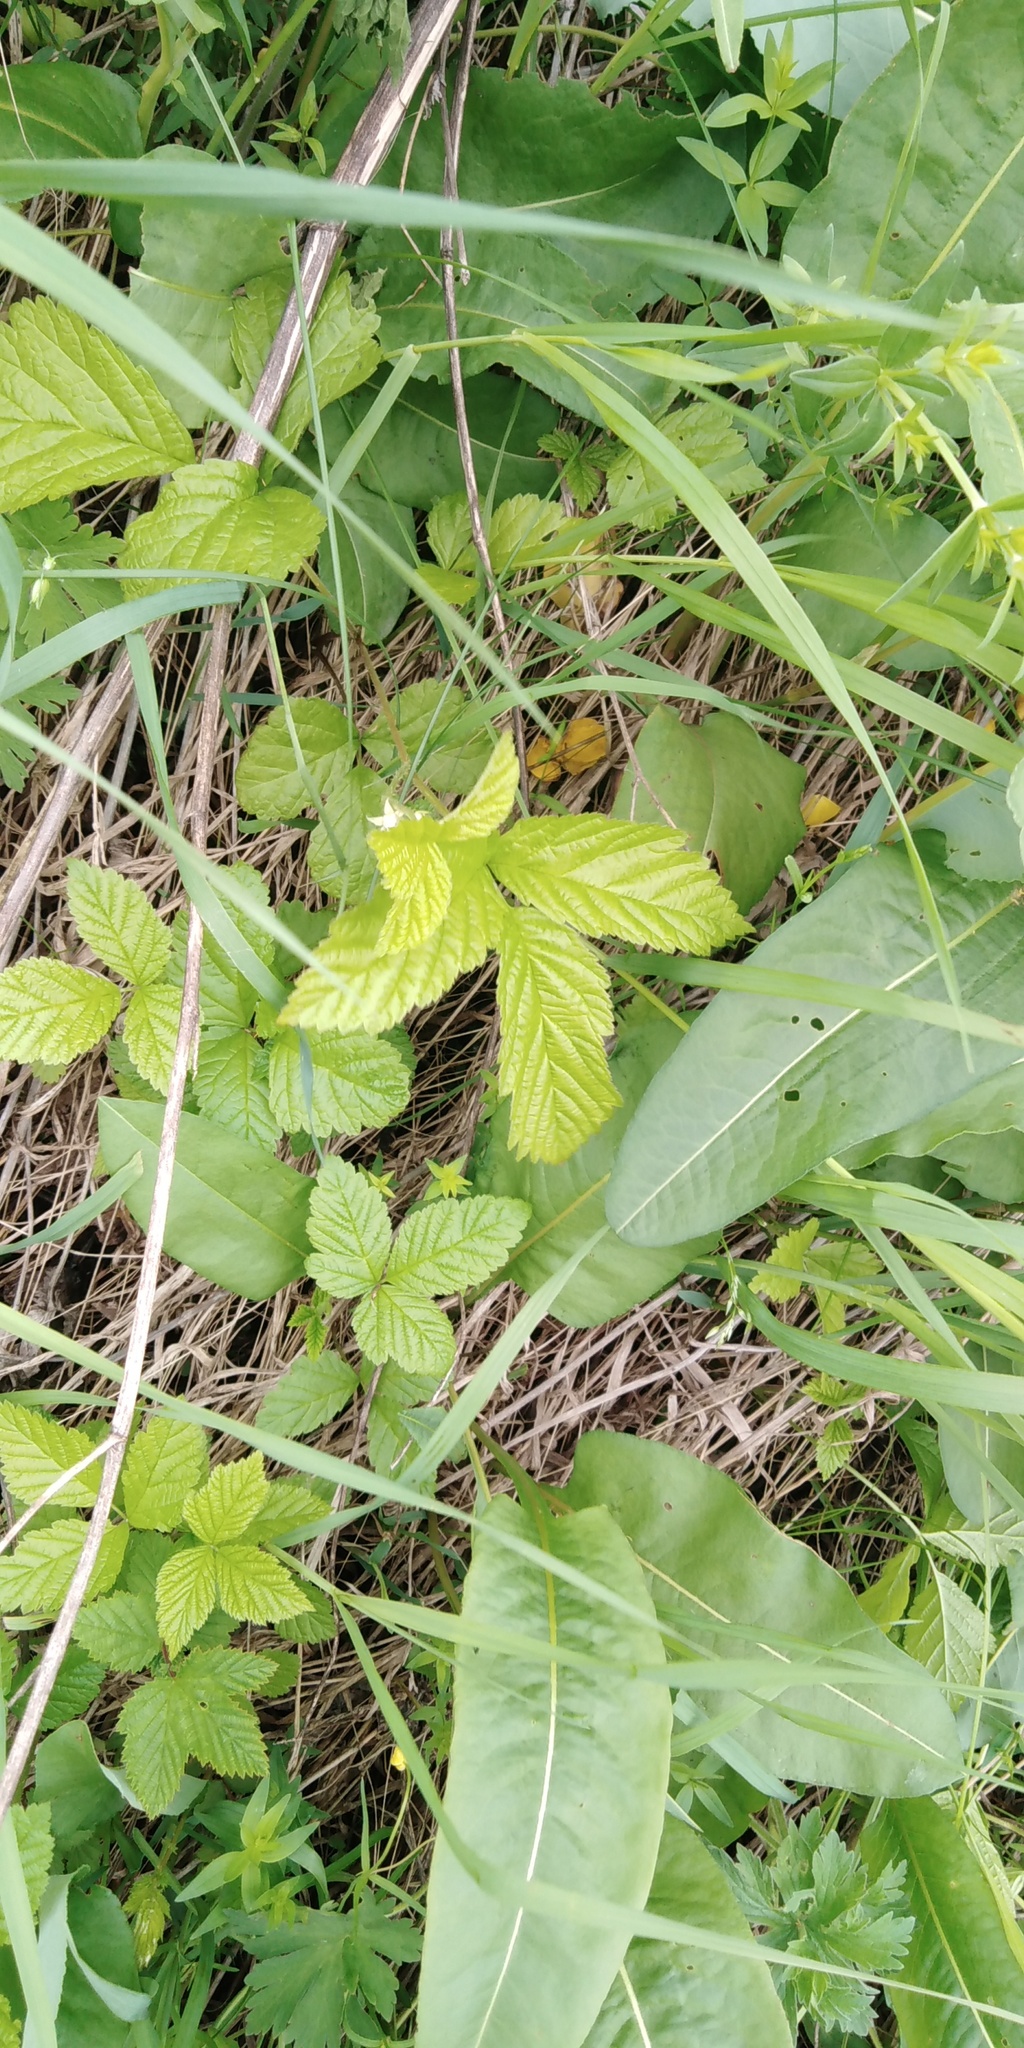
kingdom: Plantae
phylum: Tracheophyta
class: Magnoliopsida
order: Rosales
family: Rosaceae
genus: Rubus
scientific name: Rubus saxatilis
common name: Stone bramble
